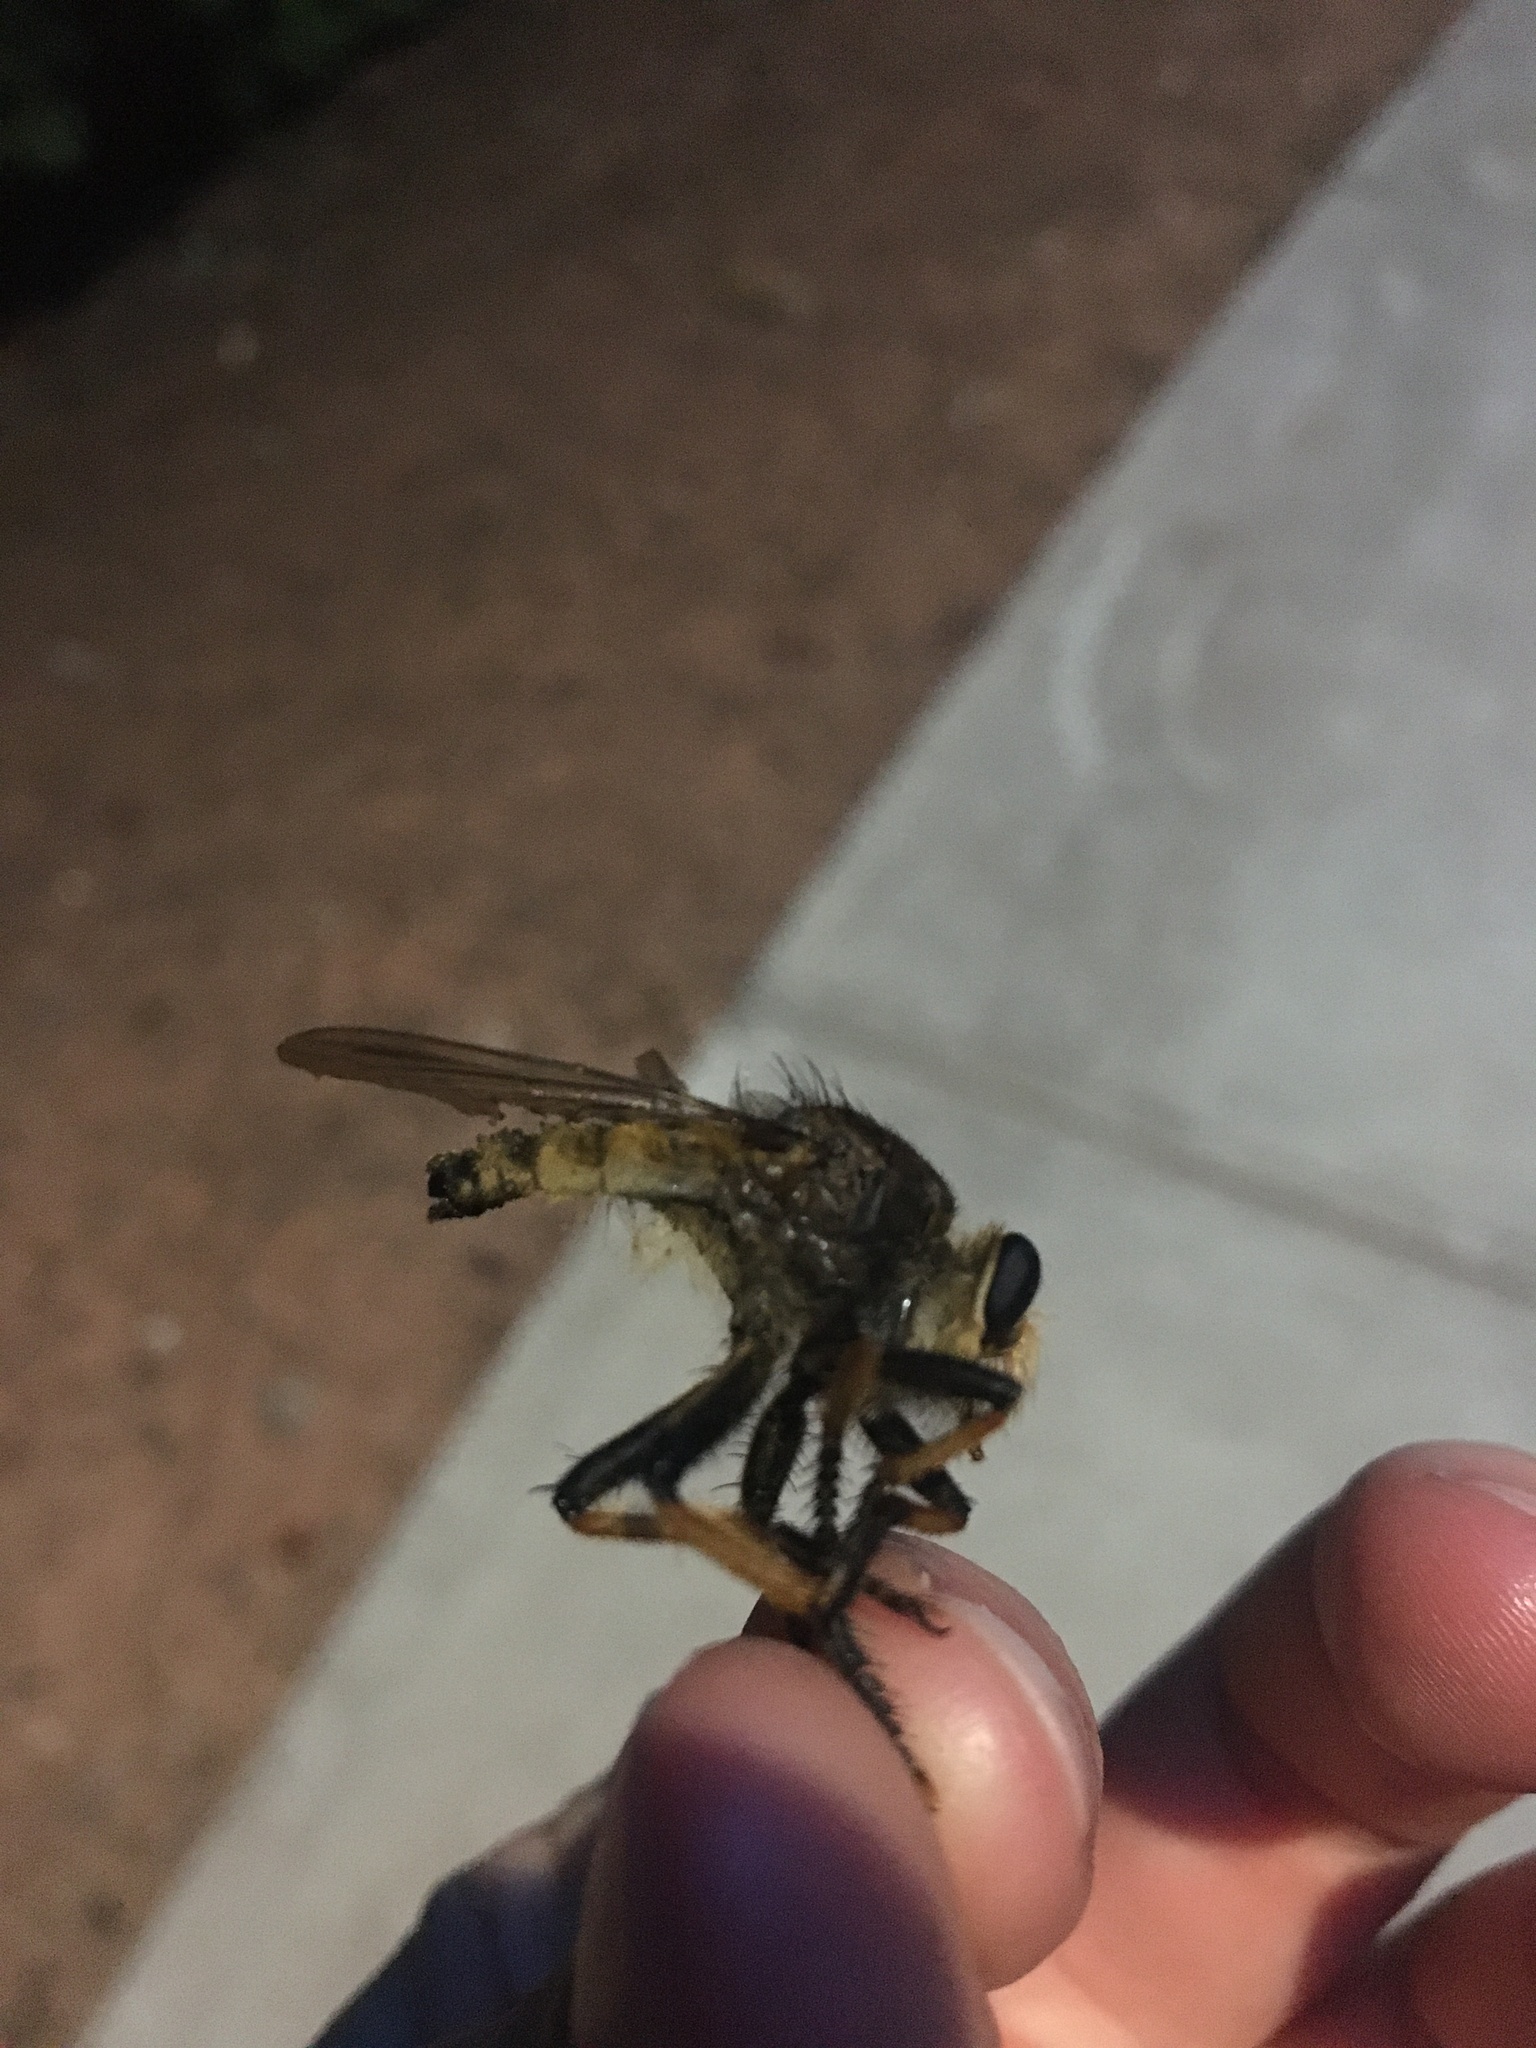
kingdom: Animalia
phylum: Arthropoda
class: Insecta
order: Diptera
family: Asilidae
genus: Promachus
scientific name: Promachus rufipes
